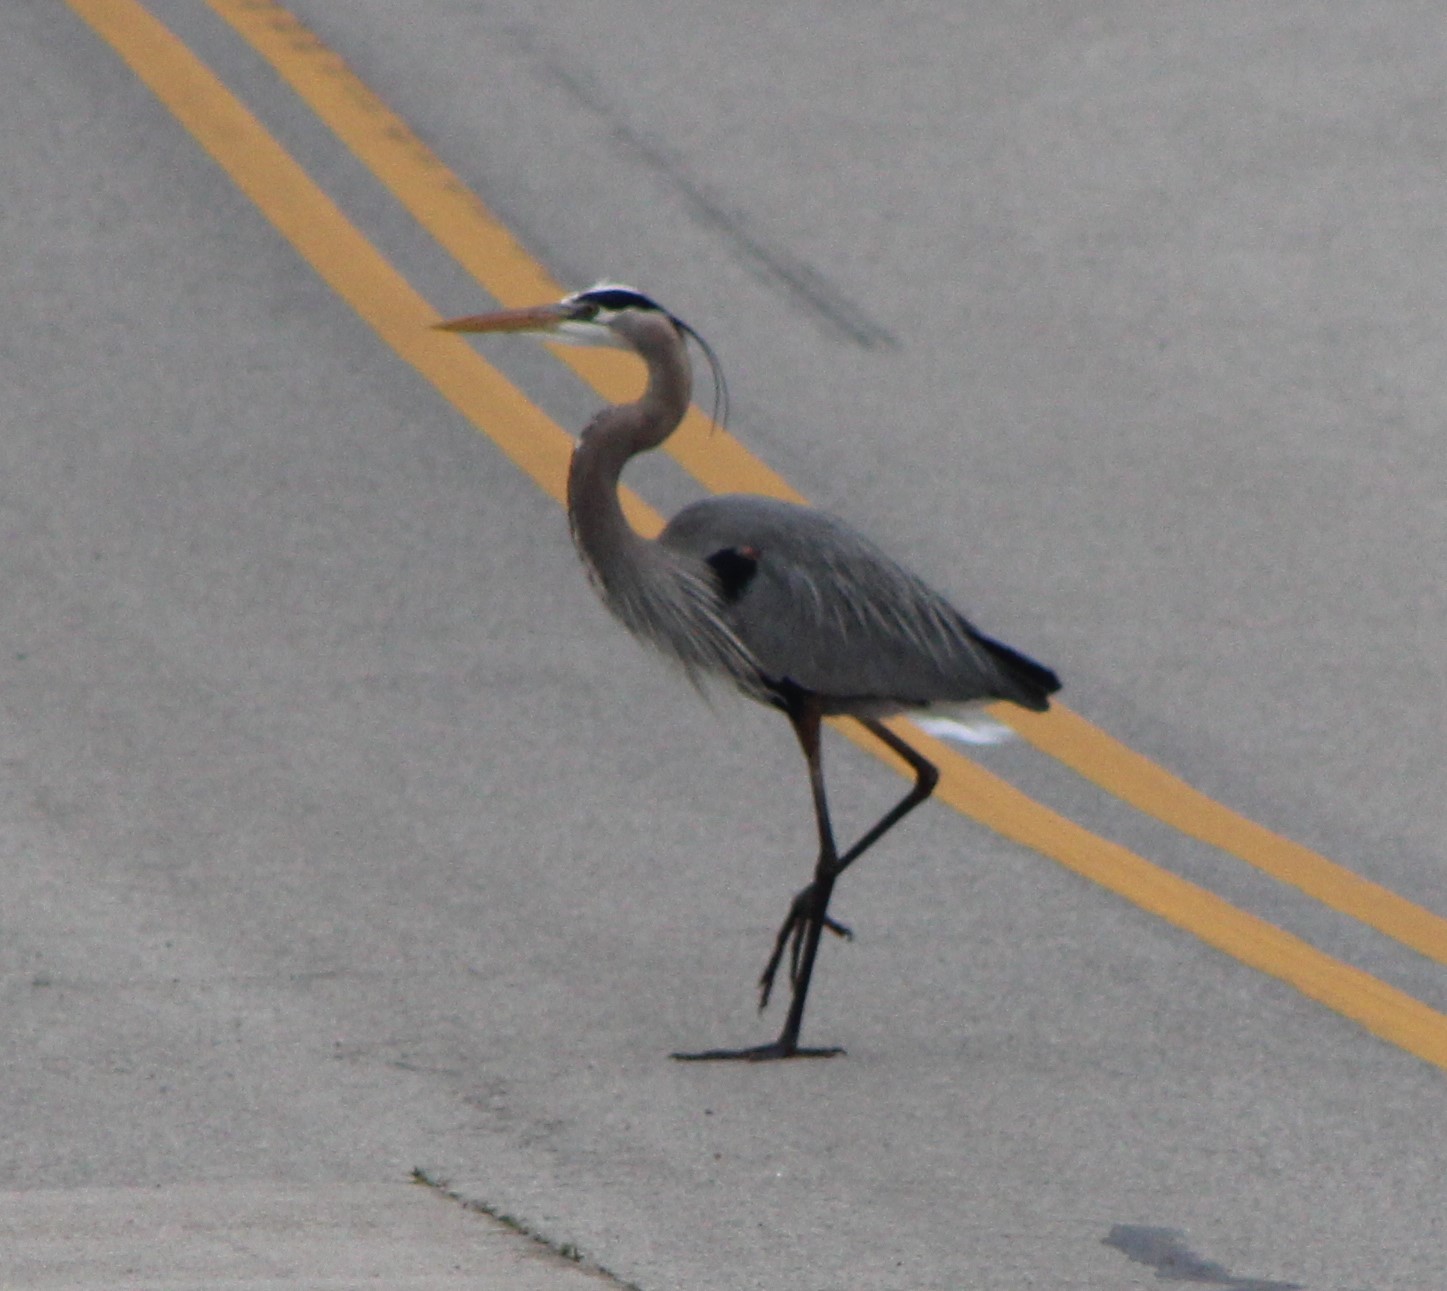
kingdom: Animalia
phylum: Chordata
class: Aves
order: Pelecaniformes
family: Ardeidae
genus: Ardea
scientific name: Ardea herodias
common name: Great blue heron
